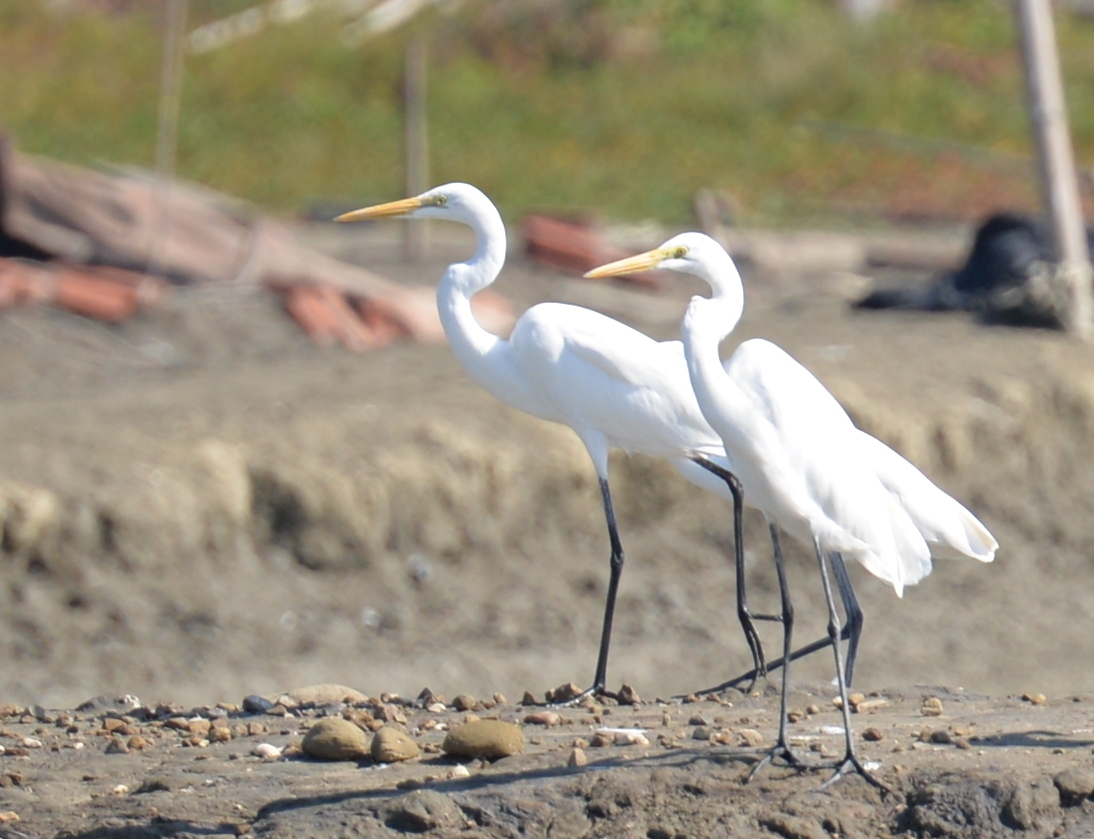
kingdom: Animalia
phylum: Chordata
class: Aves
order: Pelecaniformes
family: Ardeidae
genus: Ardea
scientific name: Ardea alba
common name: Great egret
